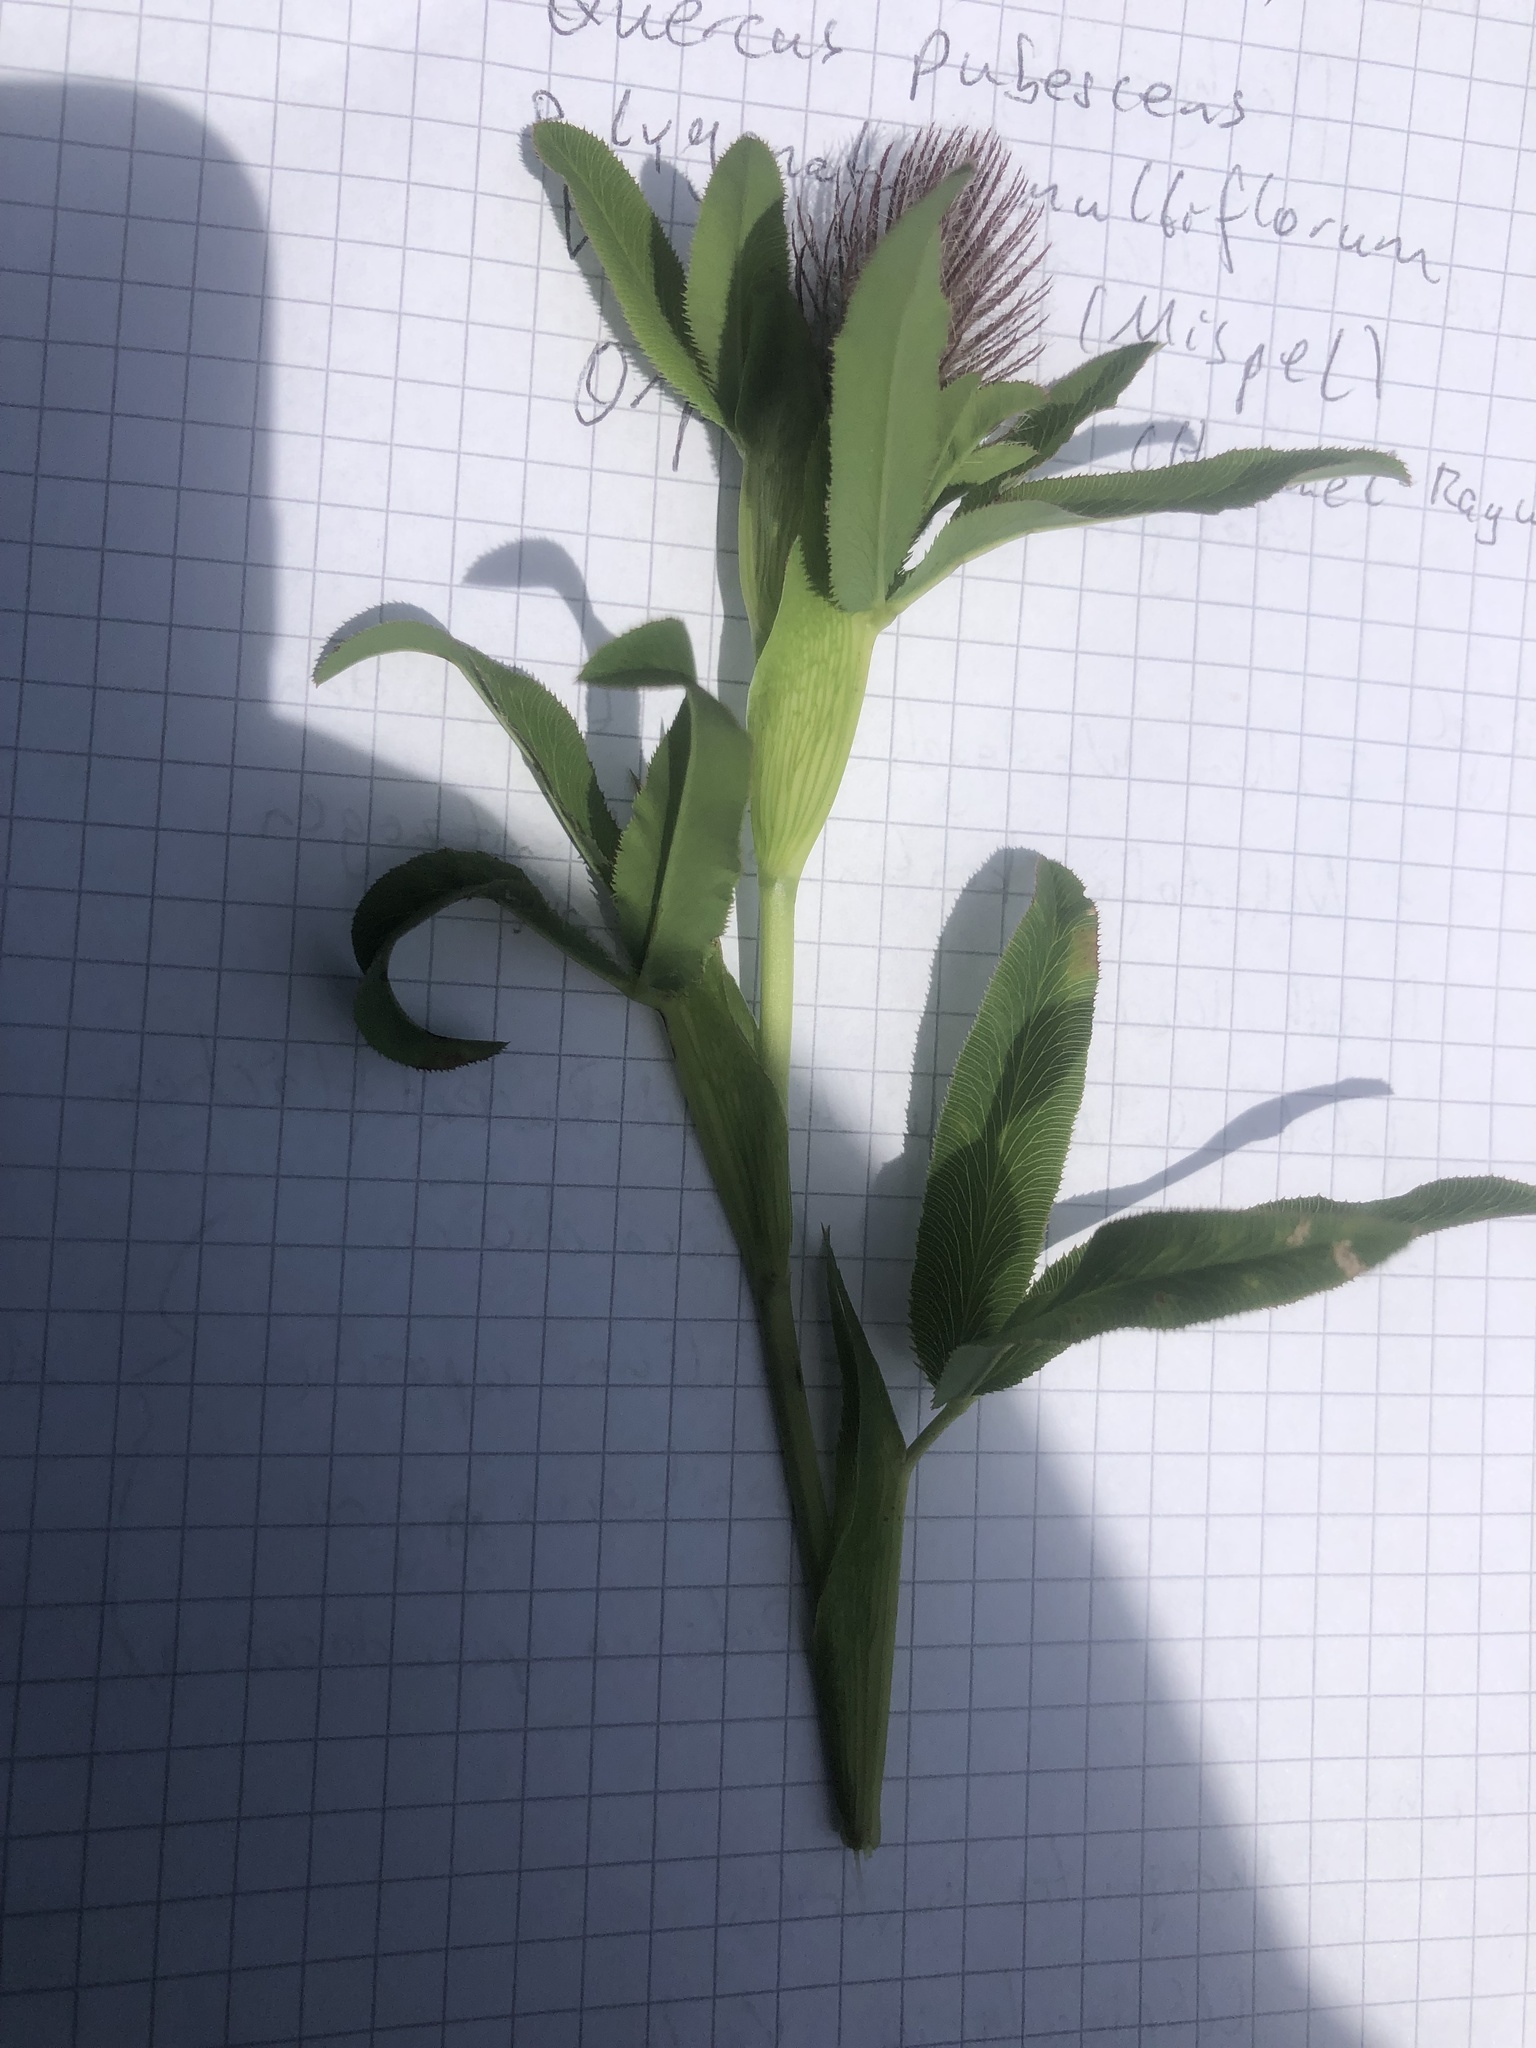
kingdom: Plantae
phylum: Tracheophyta
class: Magnoliopsida
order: Fabales
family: Fabaceae
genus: Trifolium
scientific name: Trifolium rubens
